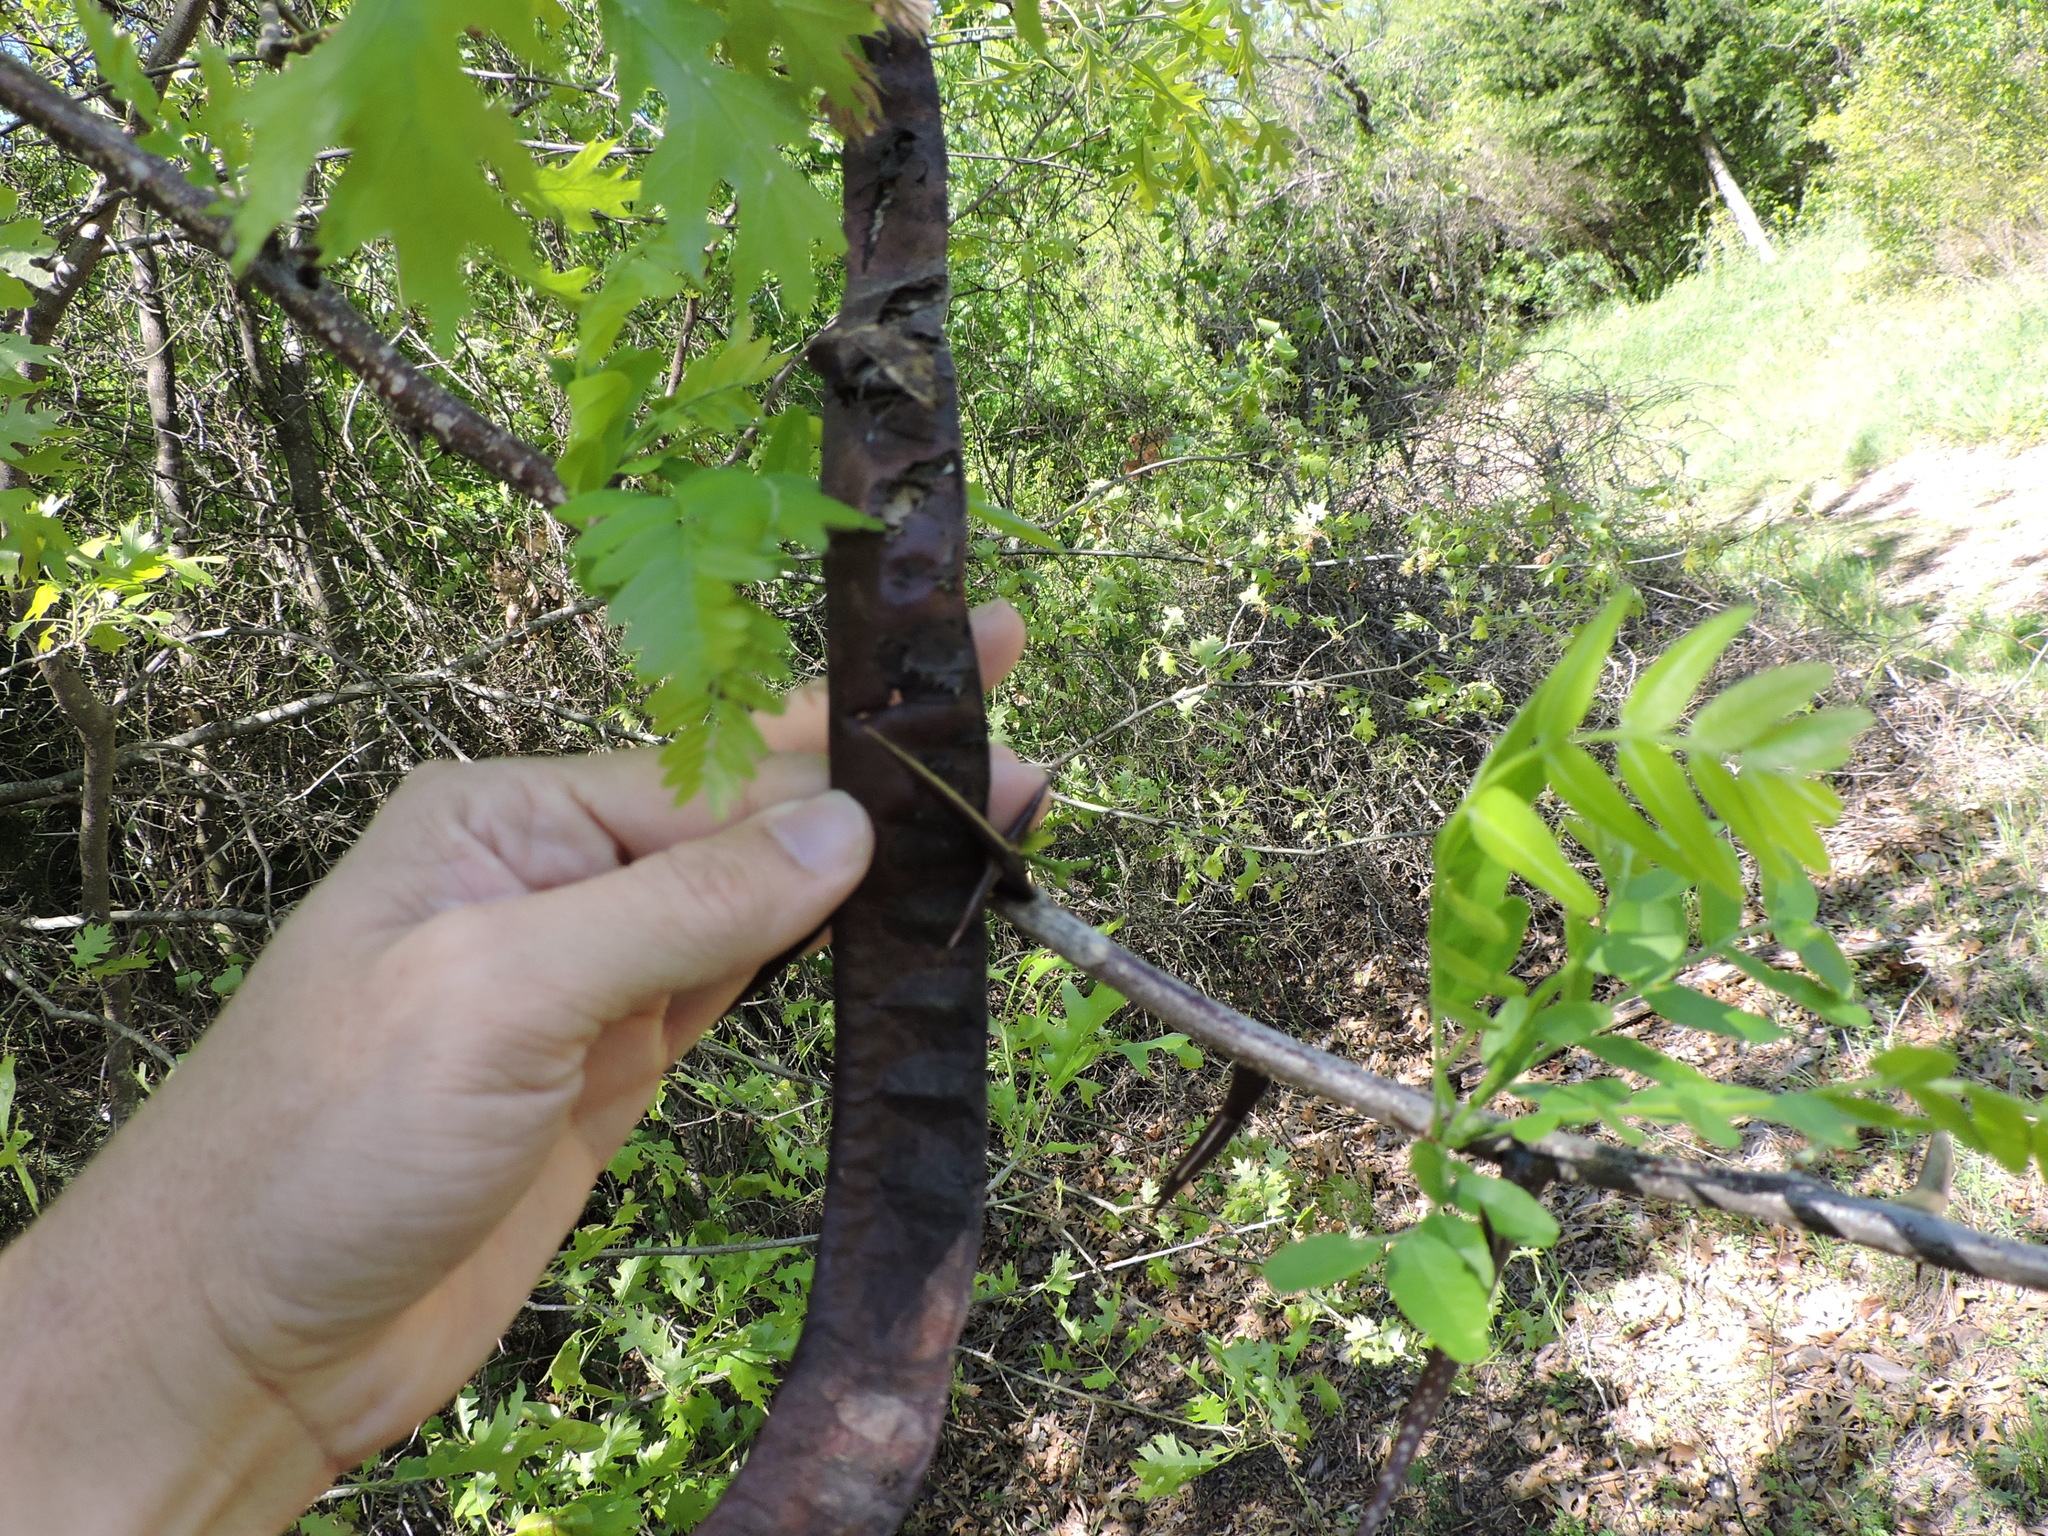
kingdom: Plantae
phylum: Tracheophyta
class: Magnoliopsida
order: Fabales
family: Fabaceae
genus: Gleditsia
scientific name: Gleditsia triacanthos
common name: Common honeylocust
